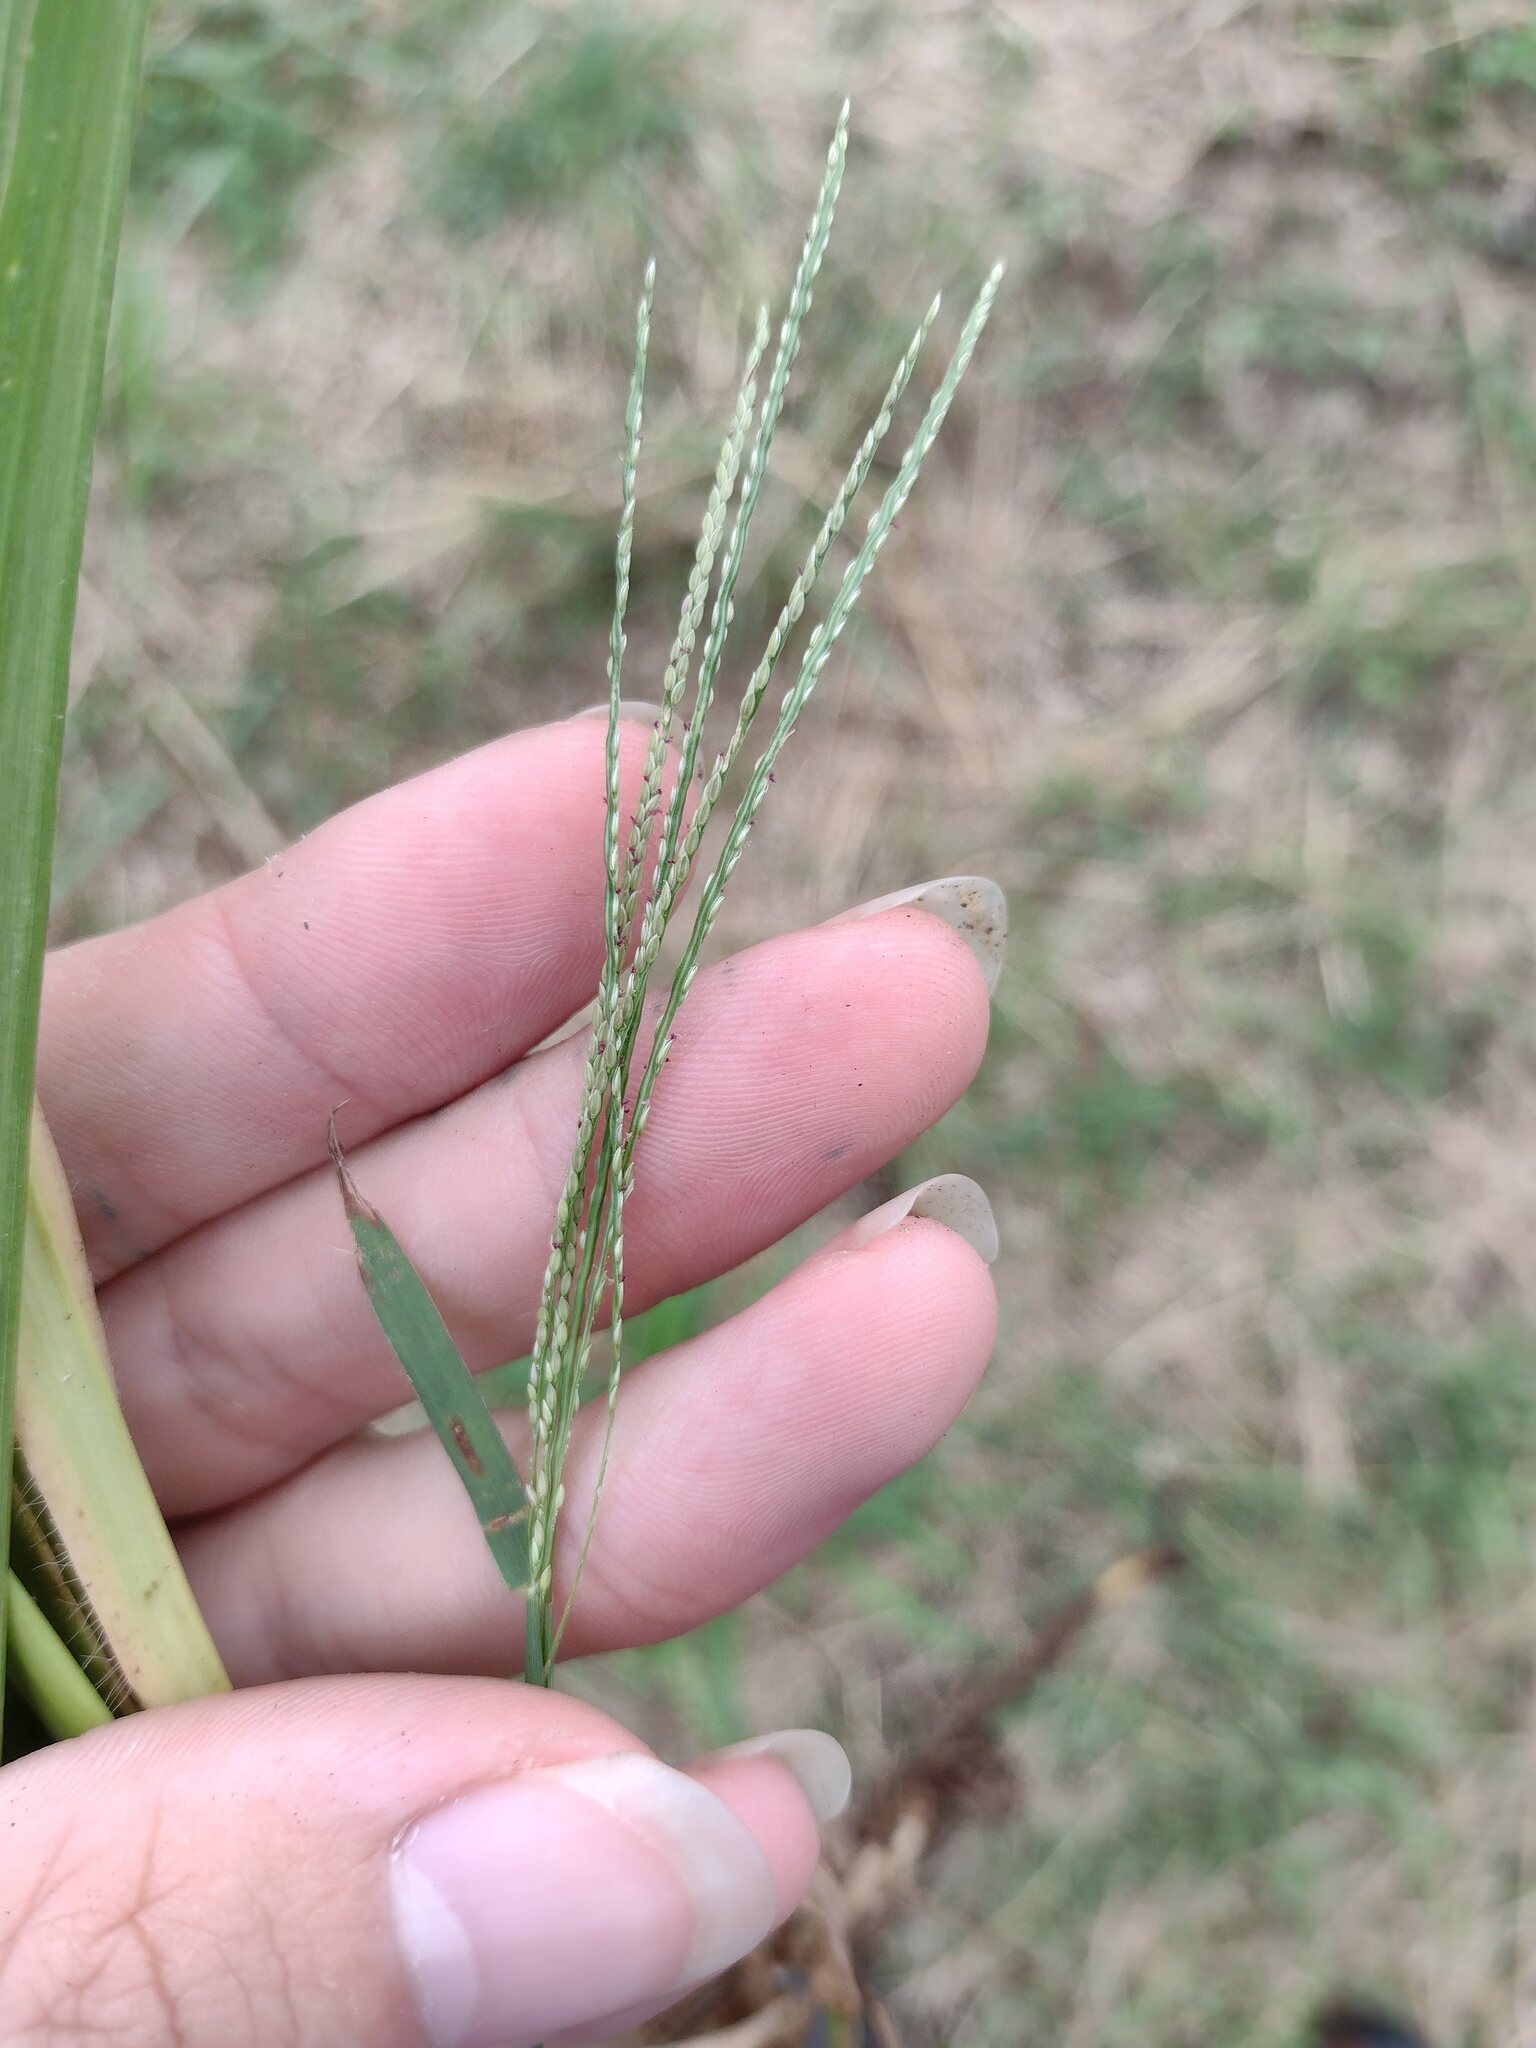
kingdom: Plantae
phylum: Tracheophyta
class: Liliopsida
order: Poales
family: Poaceae
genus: Digitaria
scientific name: Digitaria violascens
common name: Violet crabgrass
